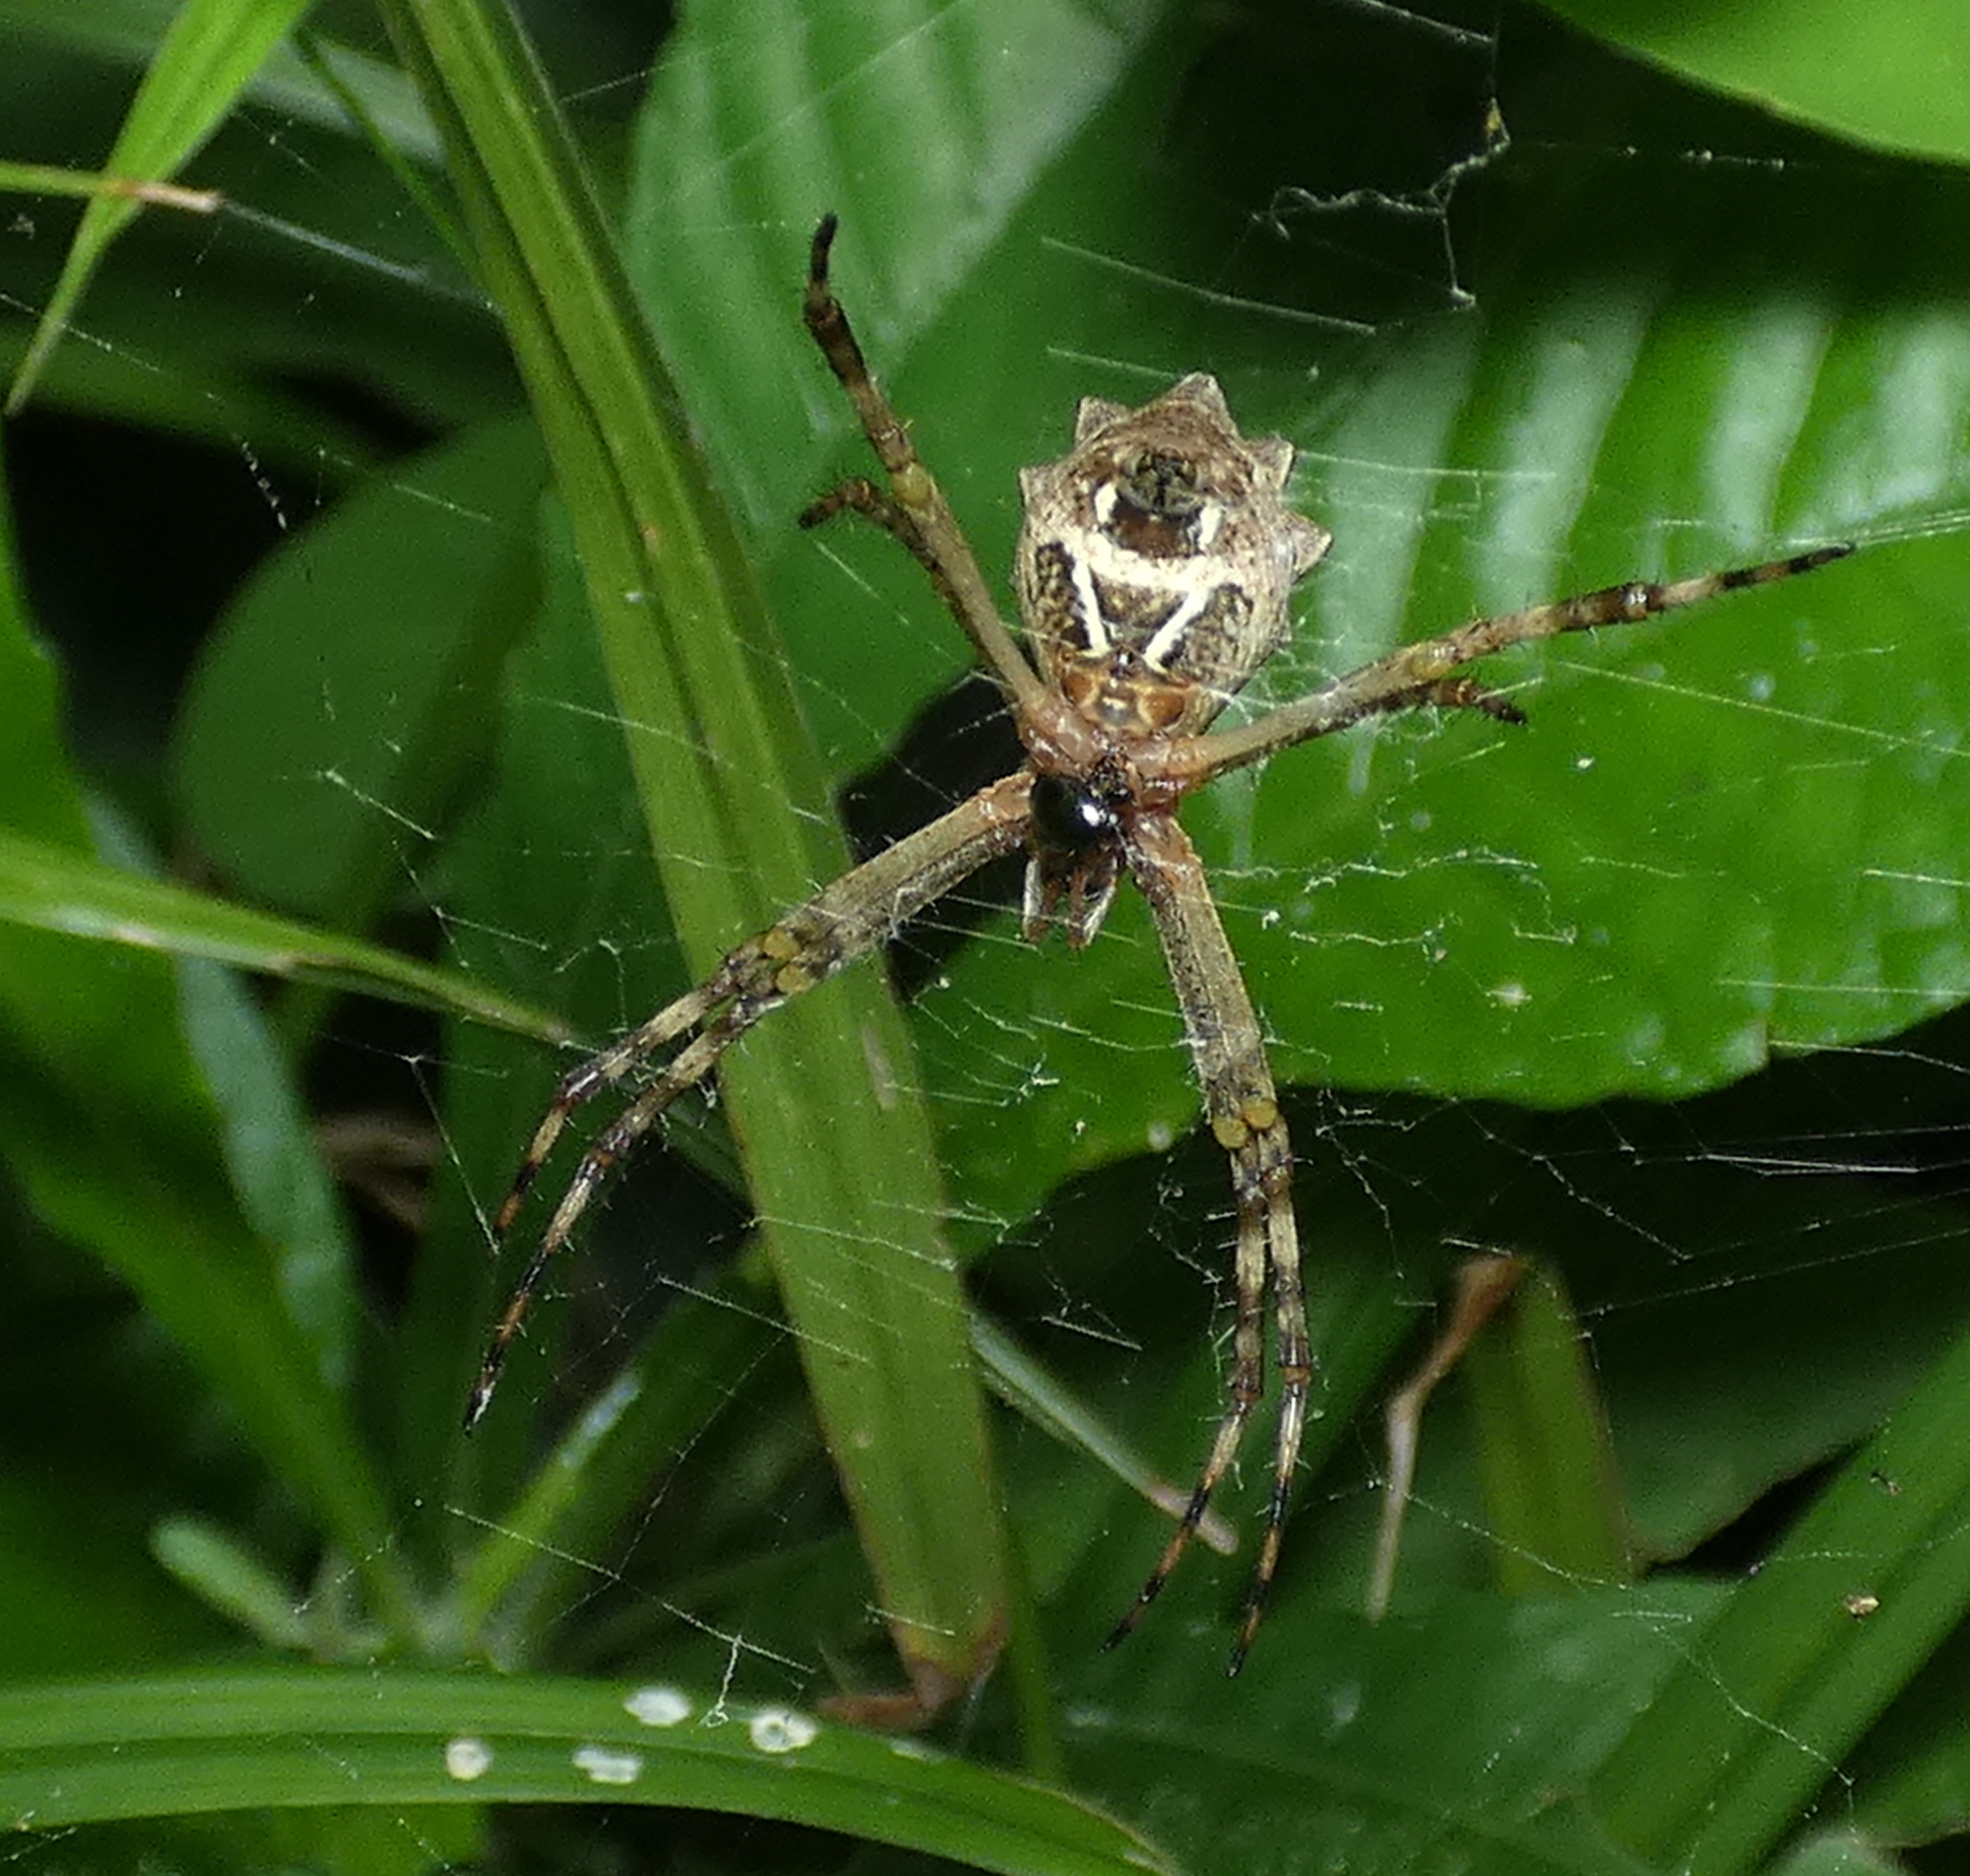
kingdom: Animalia
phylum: Arthropoda
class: Arachnida
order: Araneae
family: Araneidae
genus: Argiope
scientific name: Argiope argentata
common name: Orb weavers
